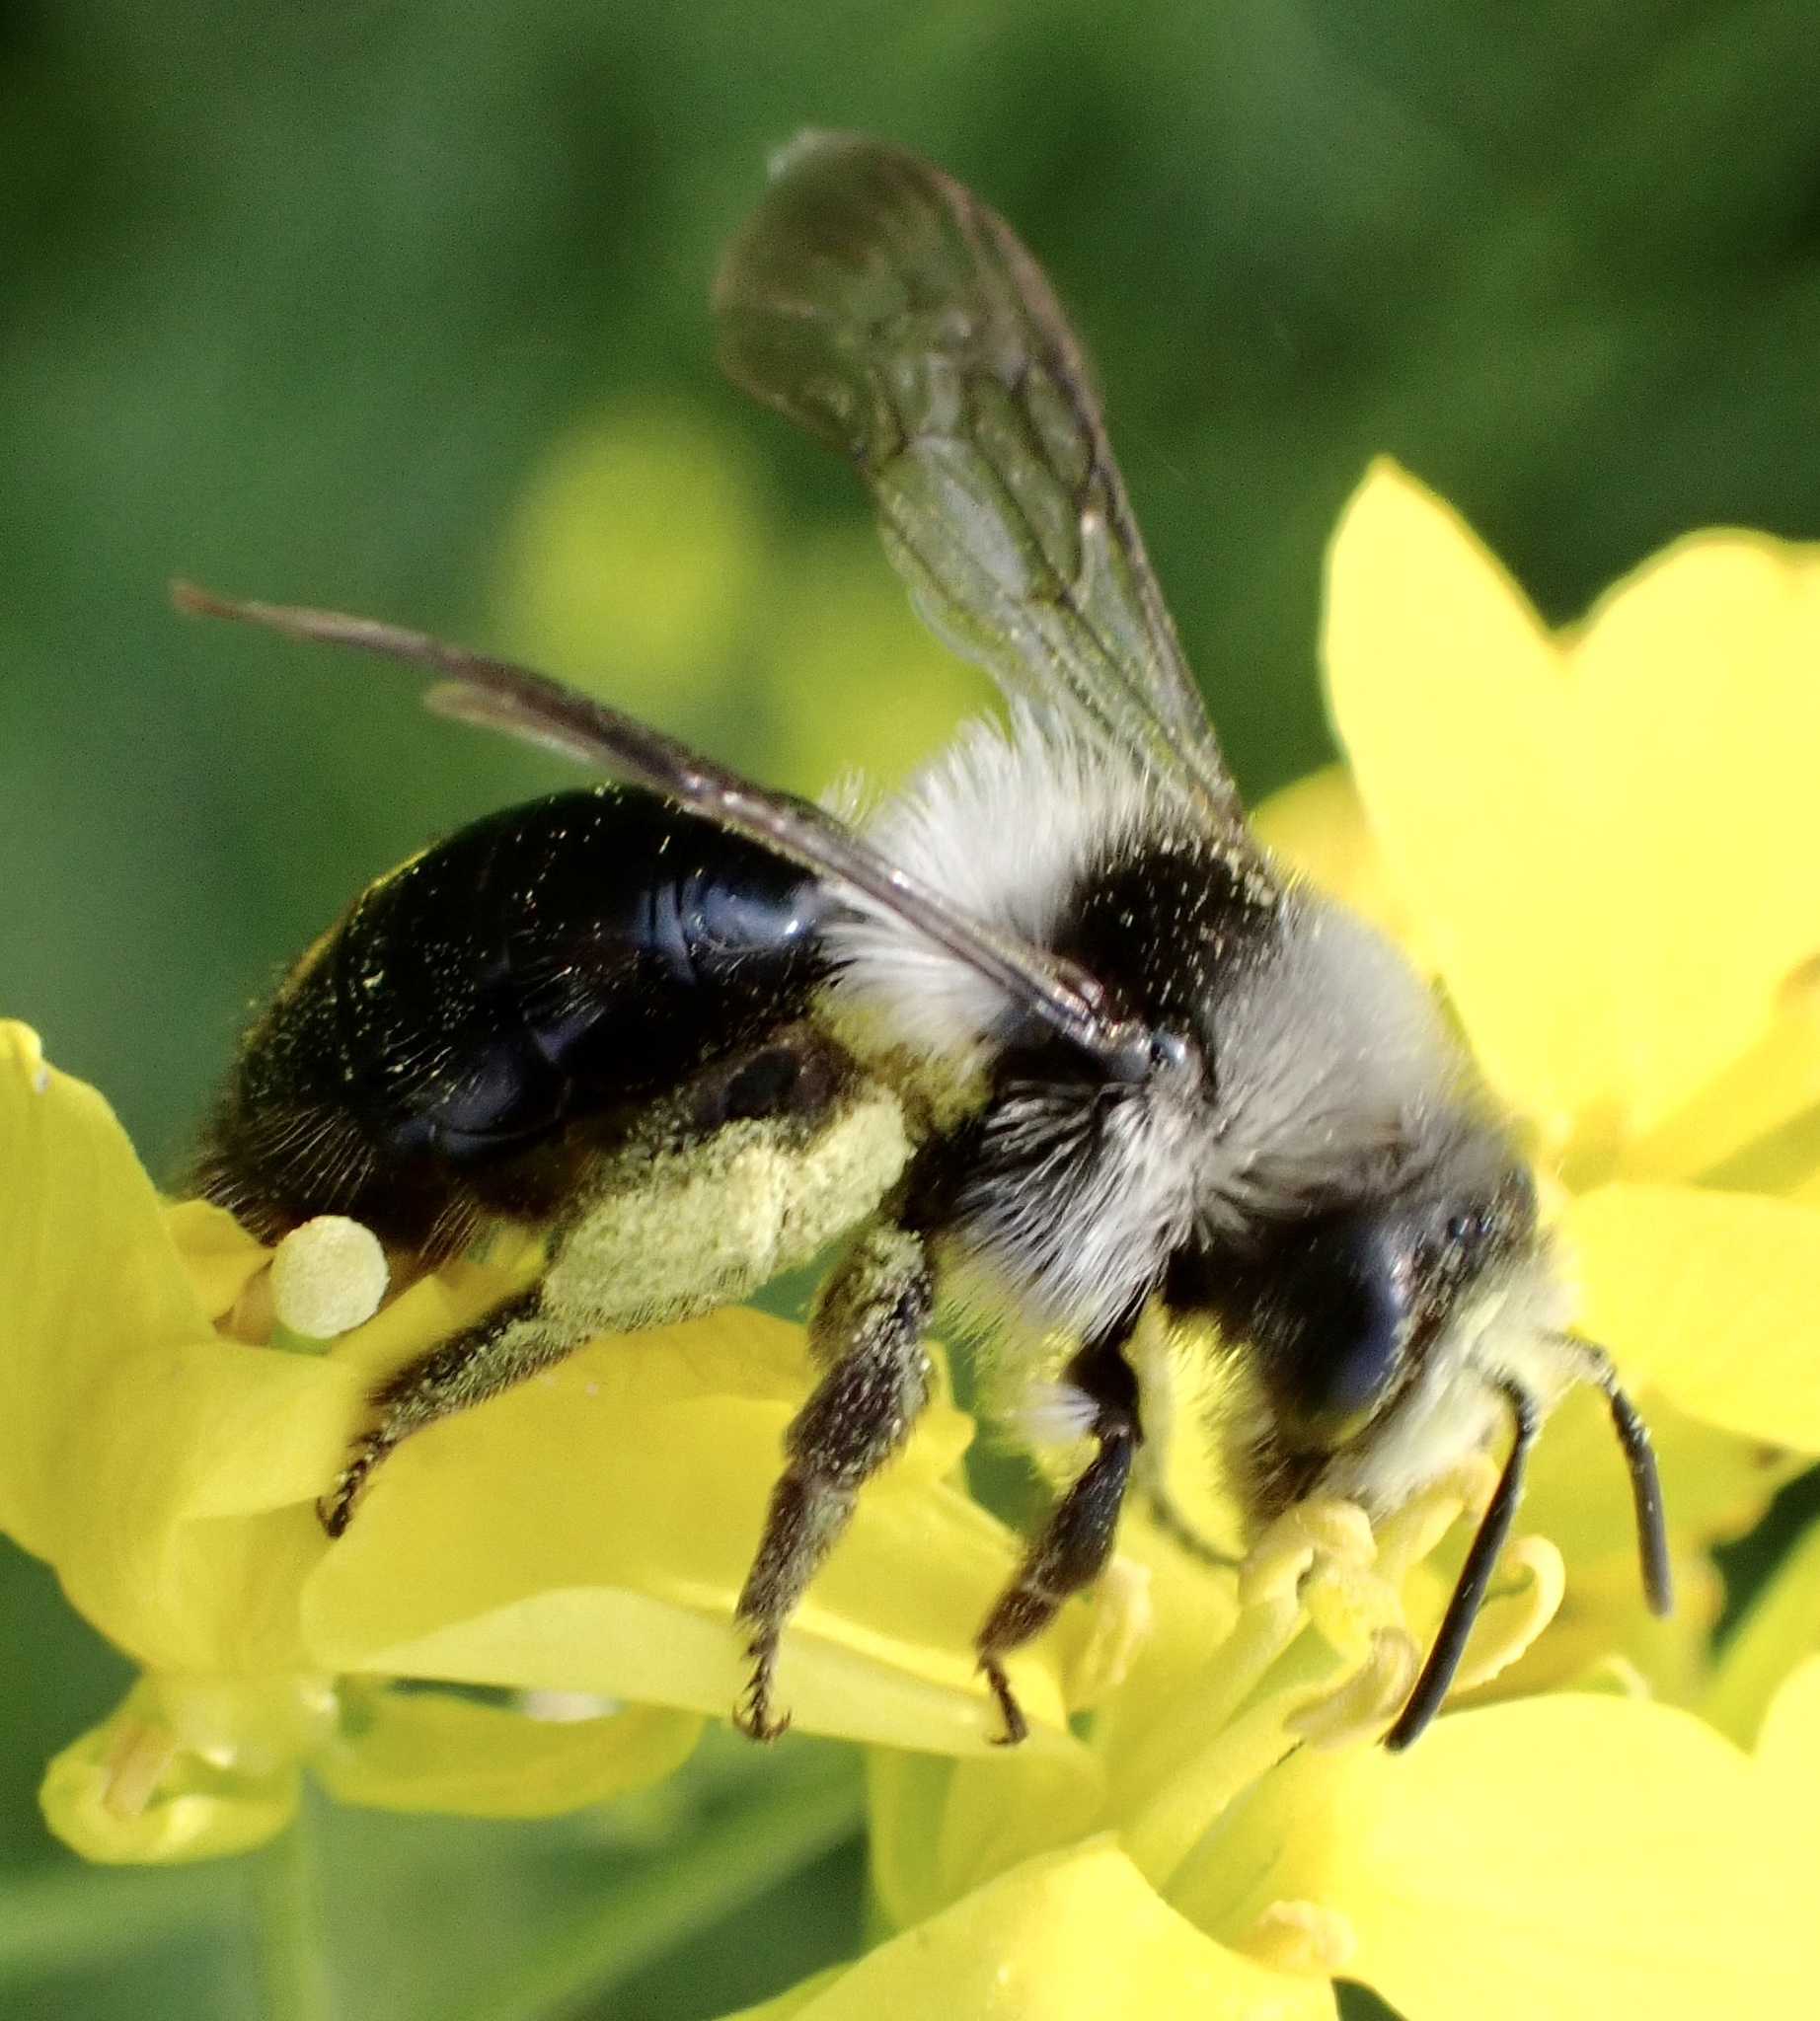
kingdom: Animalia
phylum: Arthropoda
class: Insecta
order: Hymenoptera
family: Andrenidae
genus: Andrena
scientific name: Andrena cineraria
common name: Ashy mining bee
